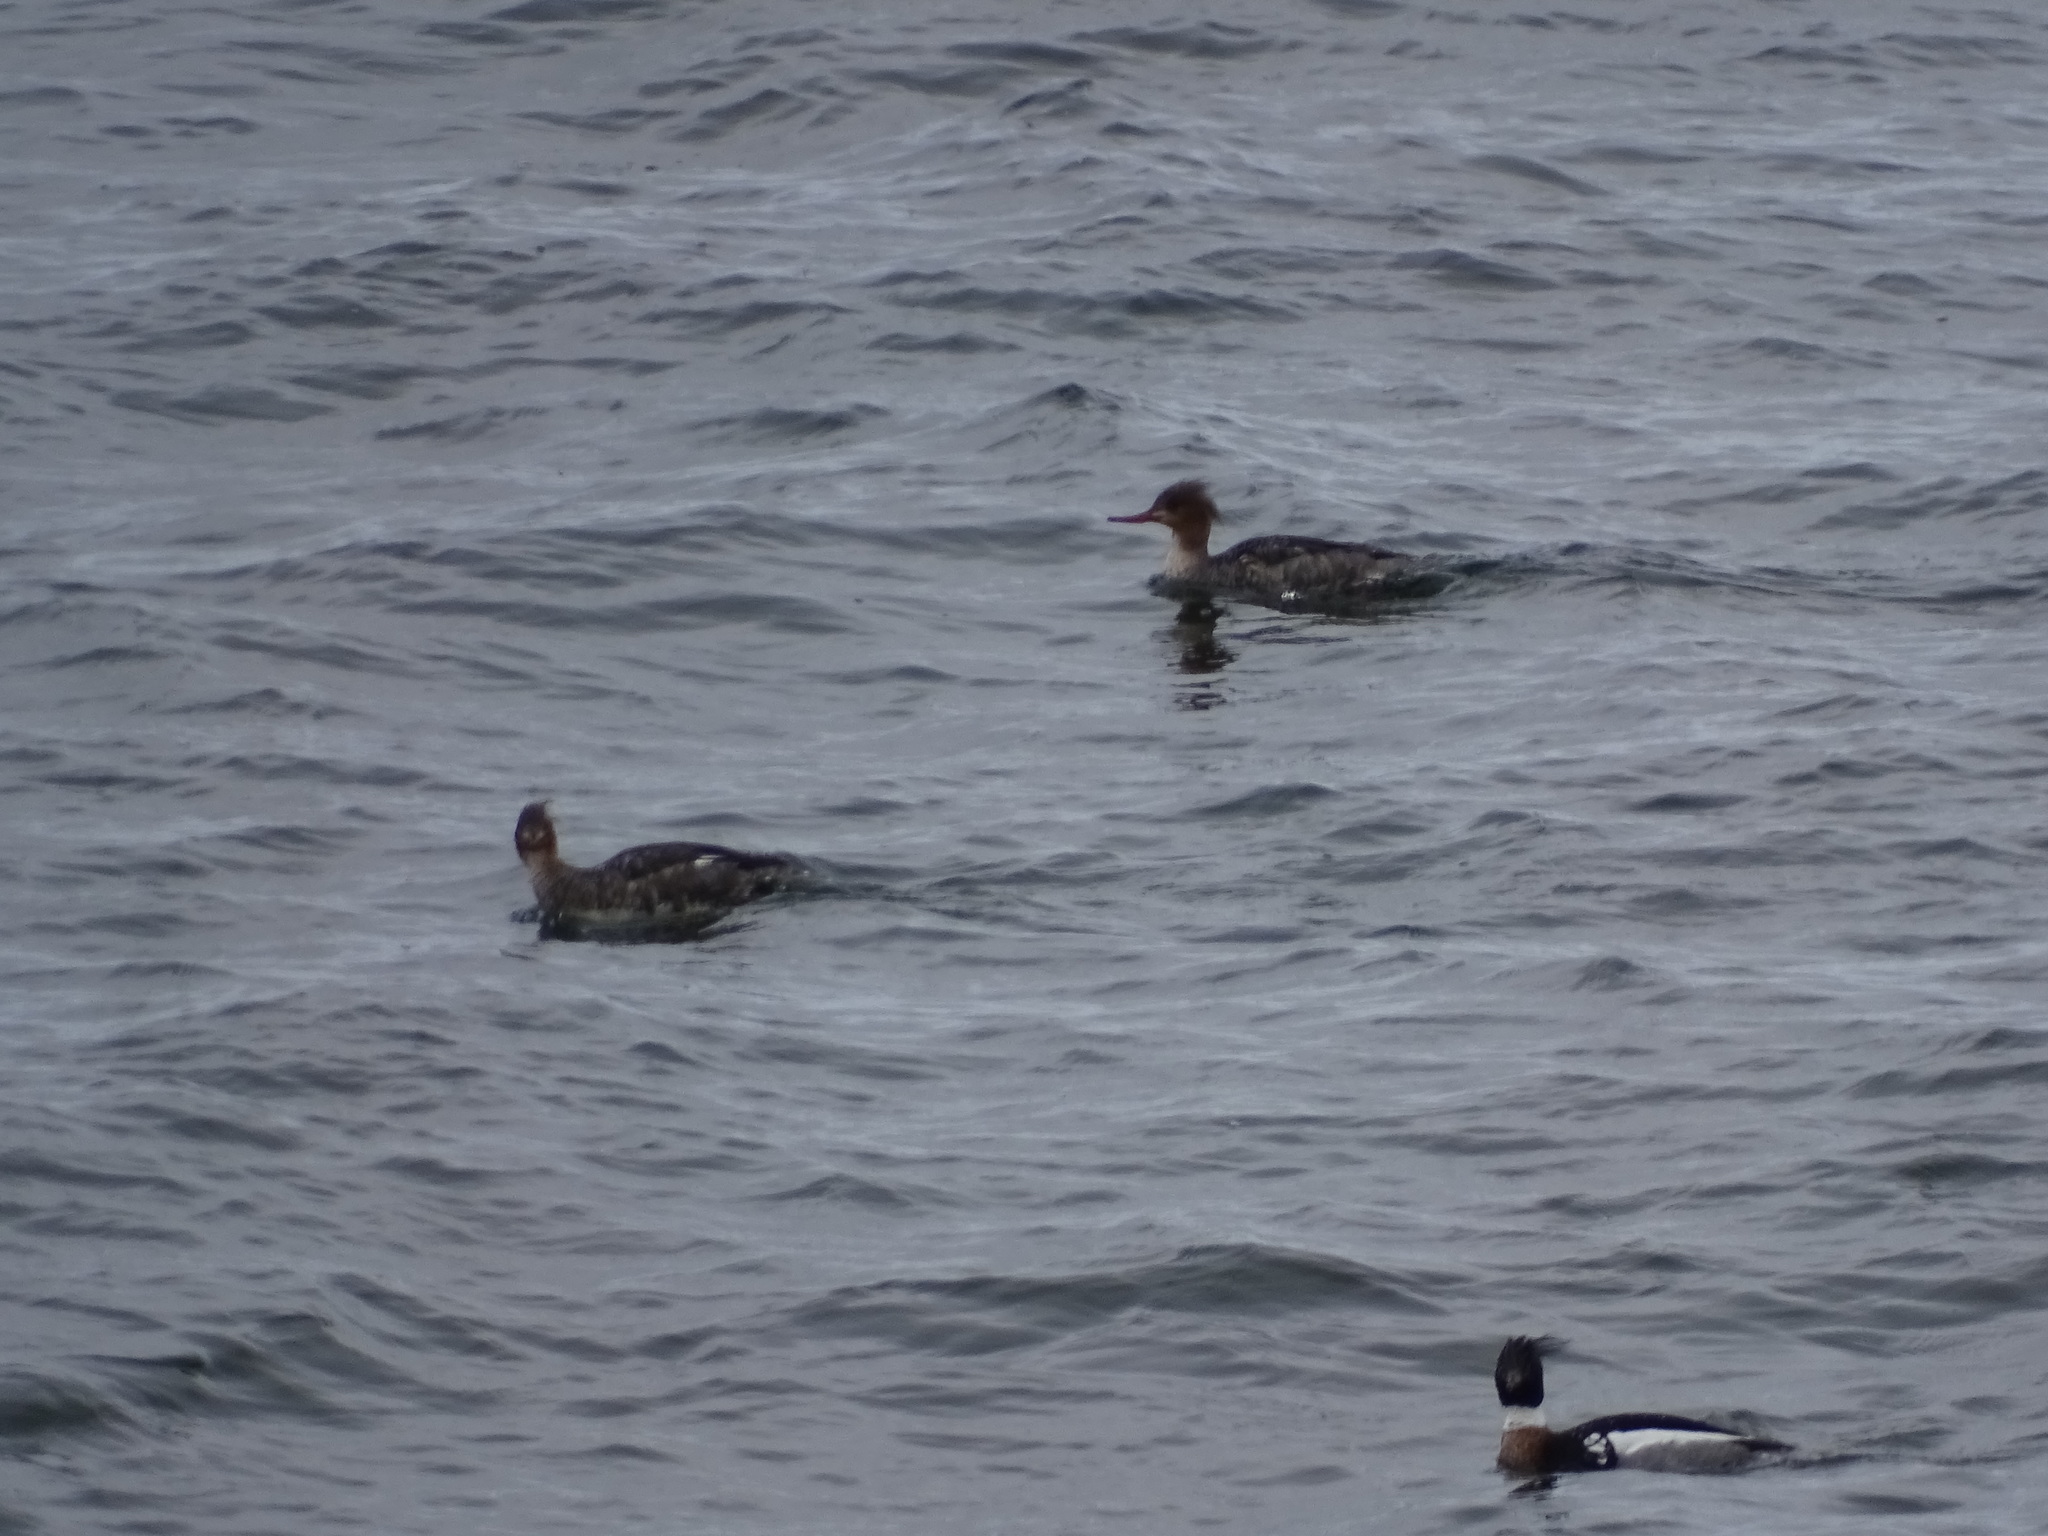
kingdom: Animalia
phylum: Chordata
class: Aves
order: Anseriformes
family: Anatidae
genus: Mergus
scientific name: Mergus serrator
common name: Red-breasted merganser
